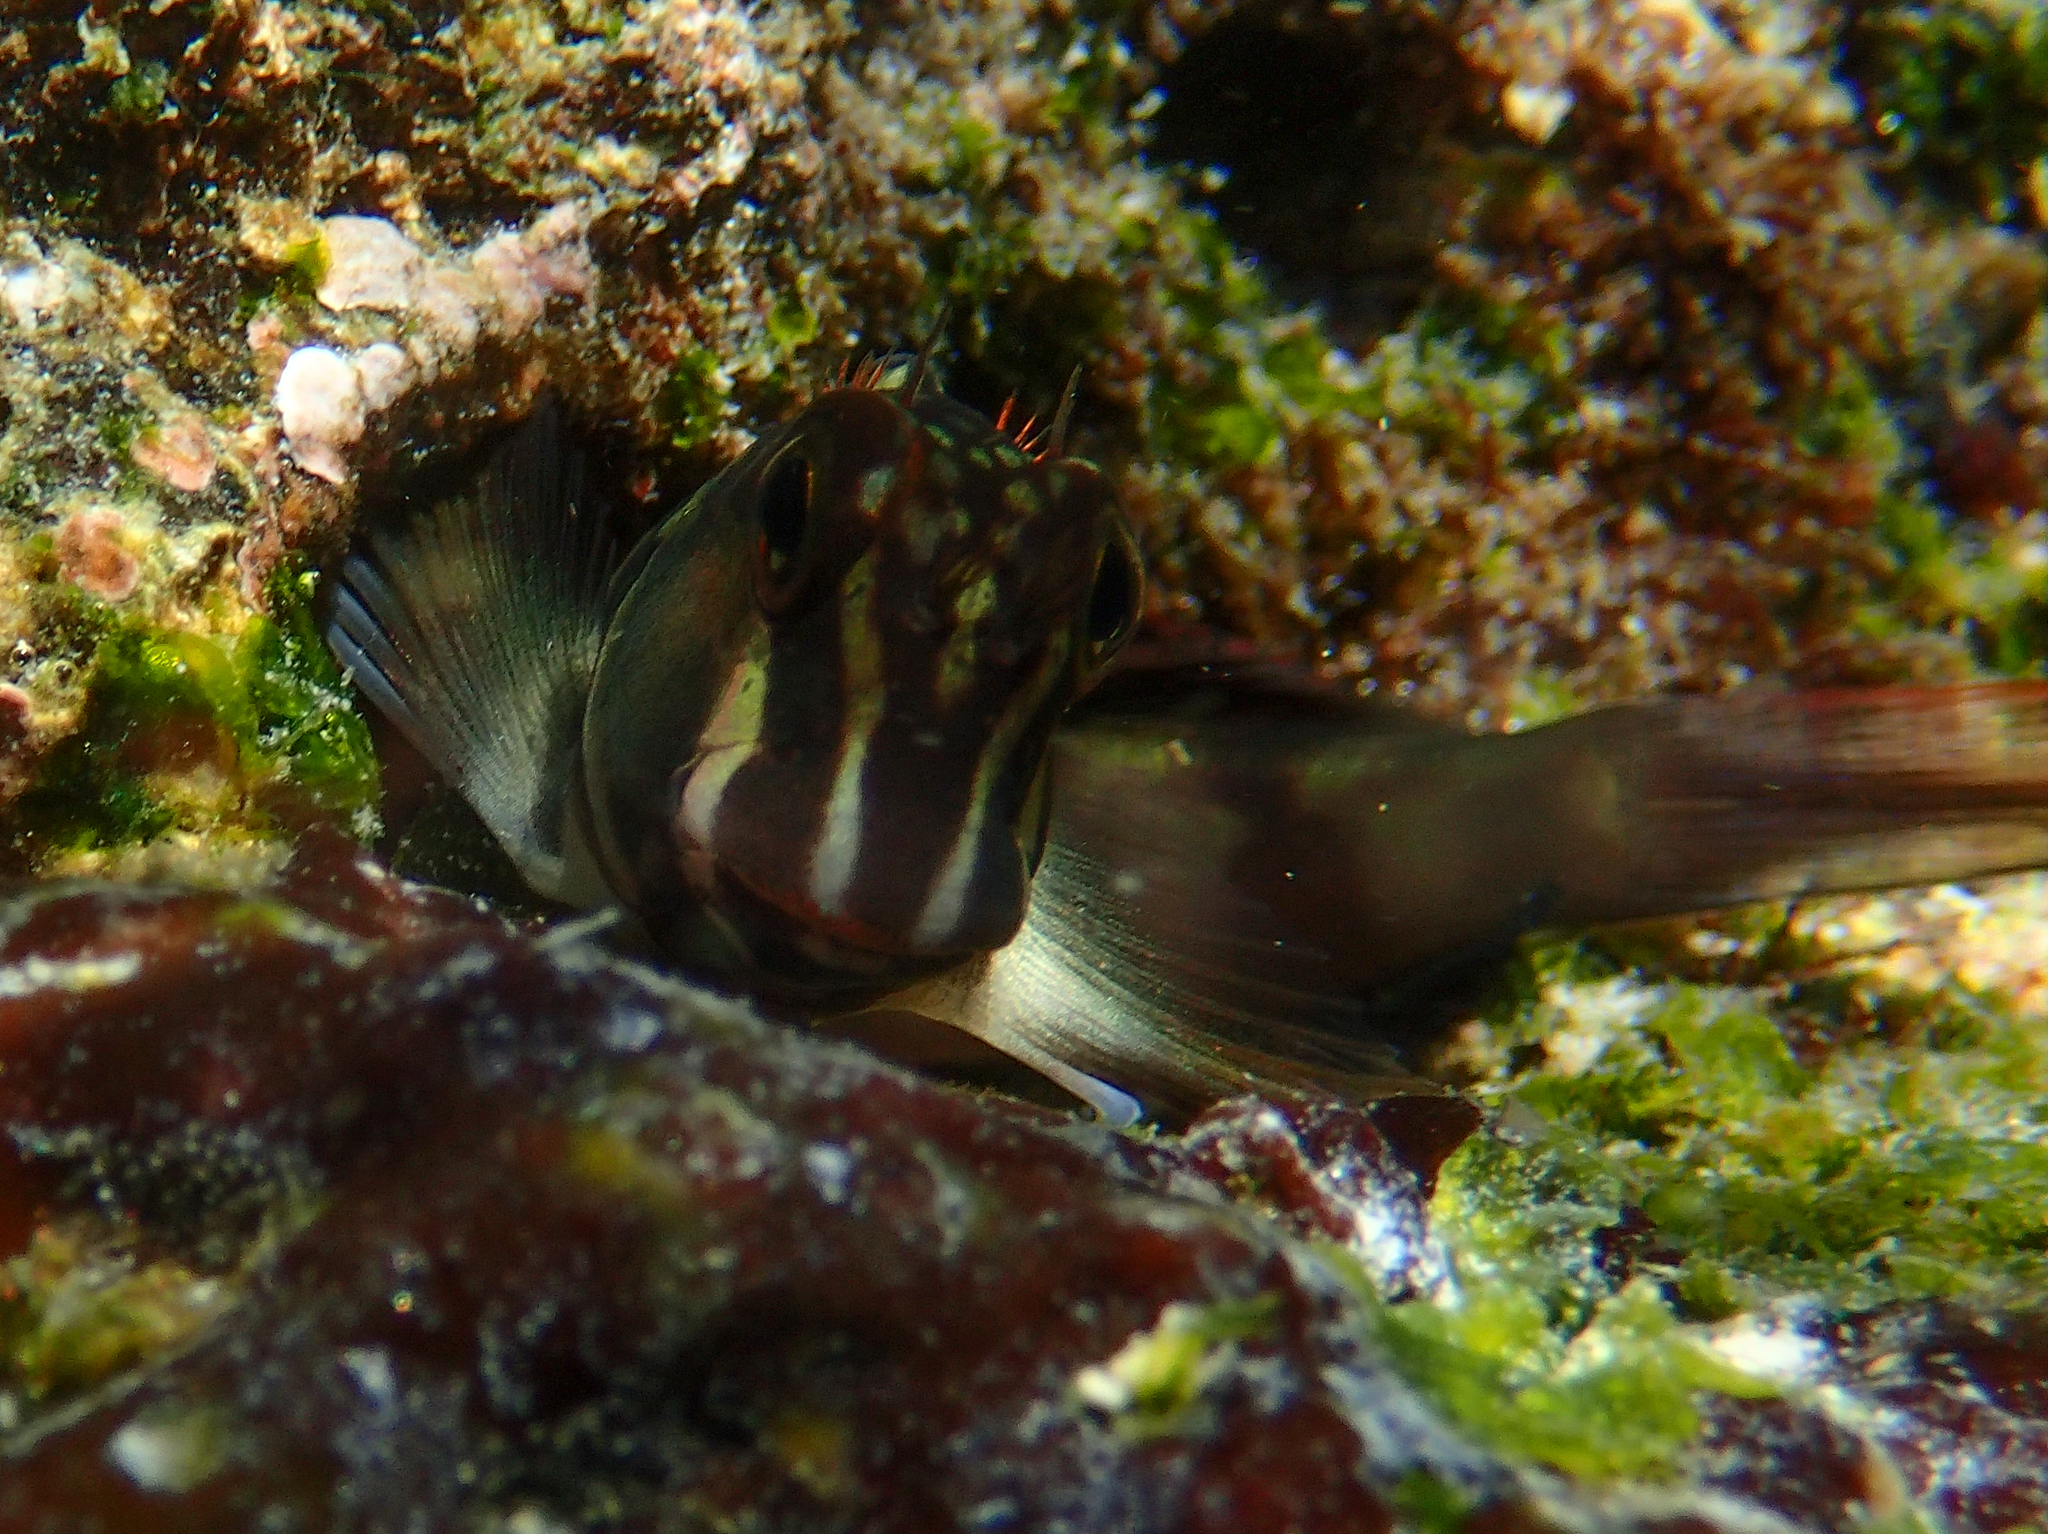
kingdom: Animalia
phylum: Chordata
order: Perciformes
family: Blenniidae
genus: Ophioblennius
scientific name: Ophioblennius steindachneri
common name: Panamic fanged blenny
